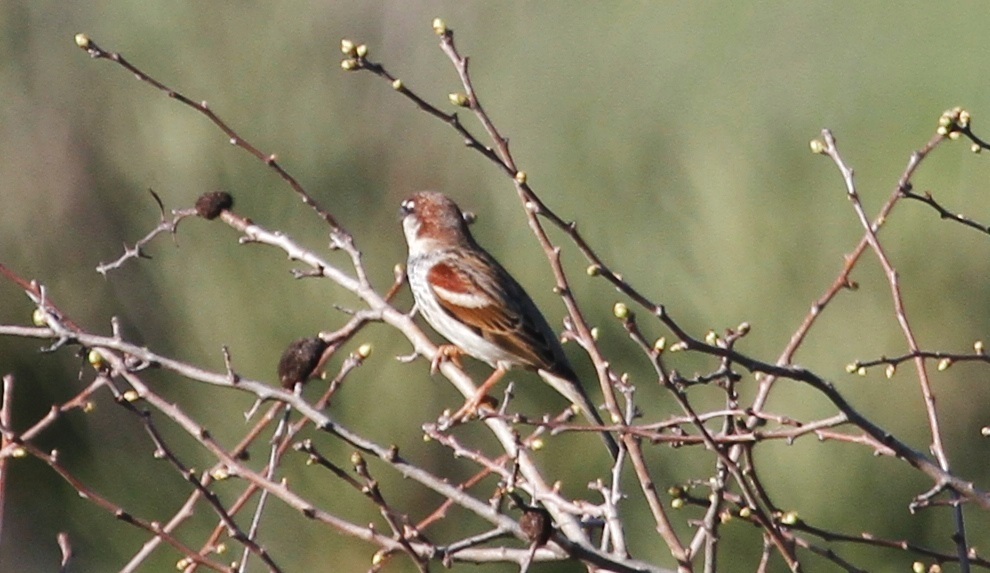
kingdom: Animalia
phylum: Chordata
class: Aves
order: Passeriformes
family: Passeridae
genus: Passer
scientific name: Passer
